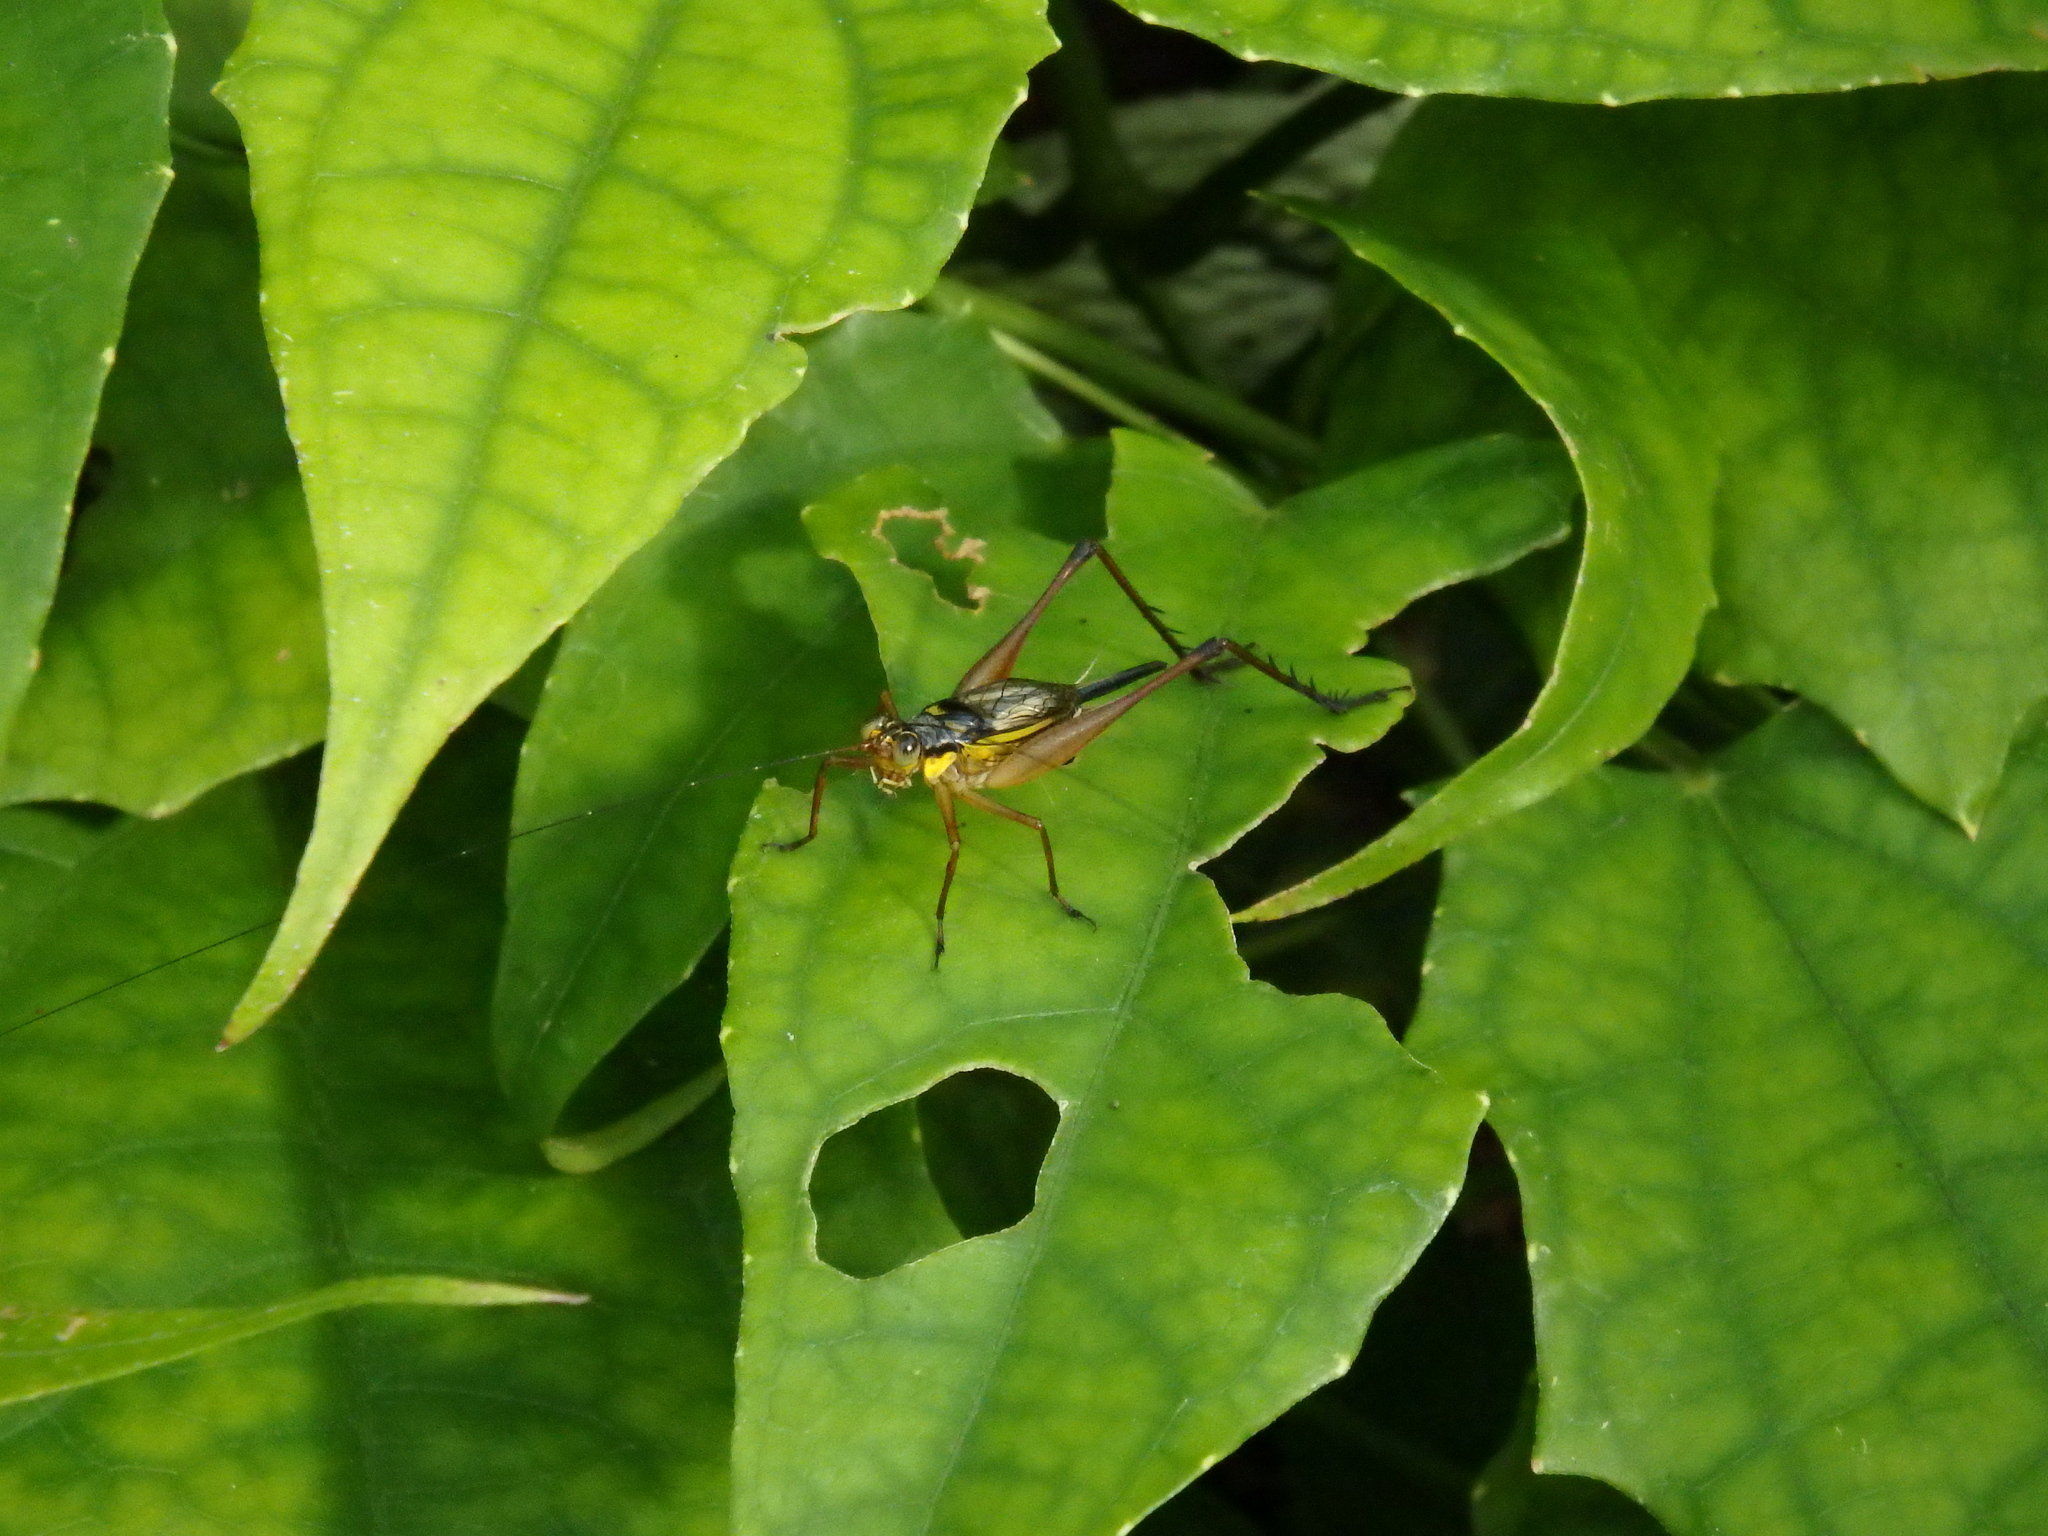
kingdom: Animalia
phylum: Arthropoda
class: Insecta
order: Orthoptera
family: Gryllidae
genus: Nisitrus
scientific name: Nisitrus malaya
